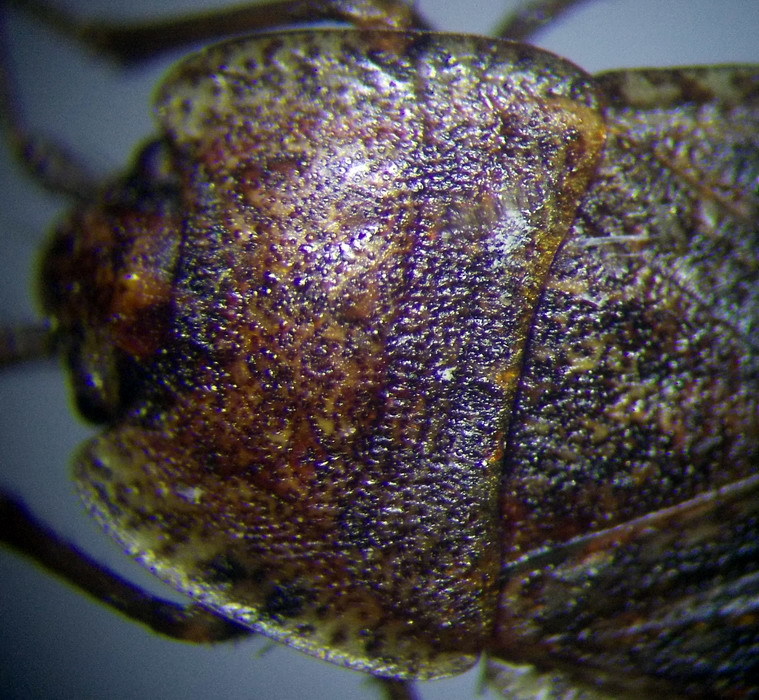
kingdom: Animalia
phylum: Arthropoda
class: Insecta
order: Hemiptera
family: Rhyparochromidae
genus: Emblethis
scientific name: Emblethis ciliatus
